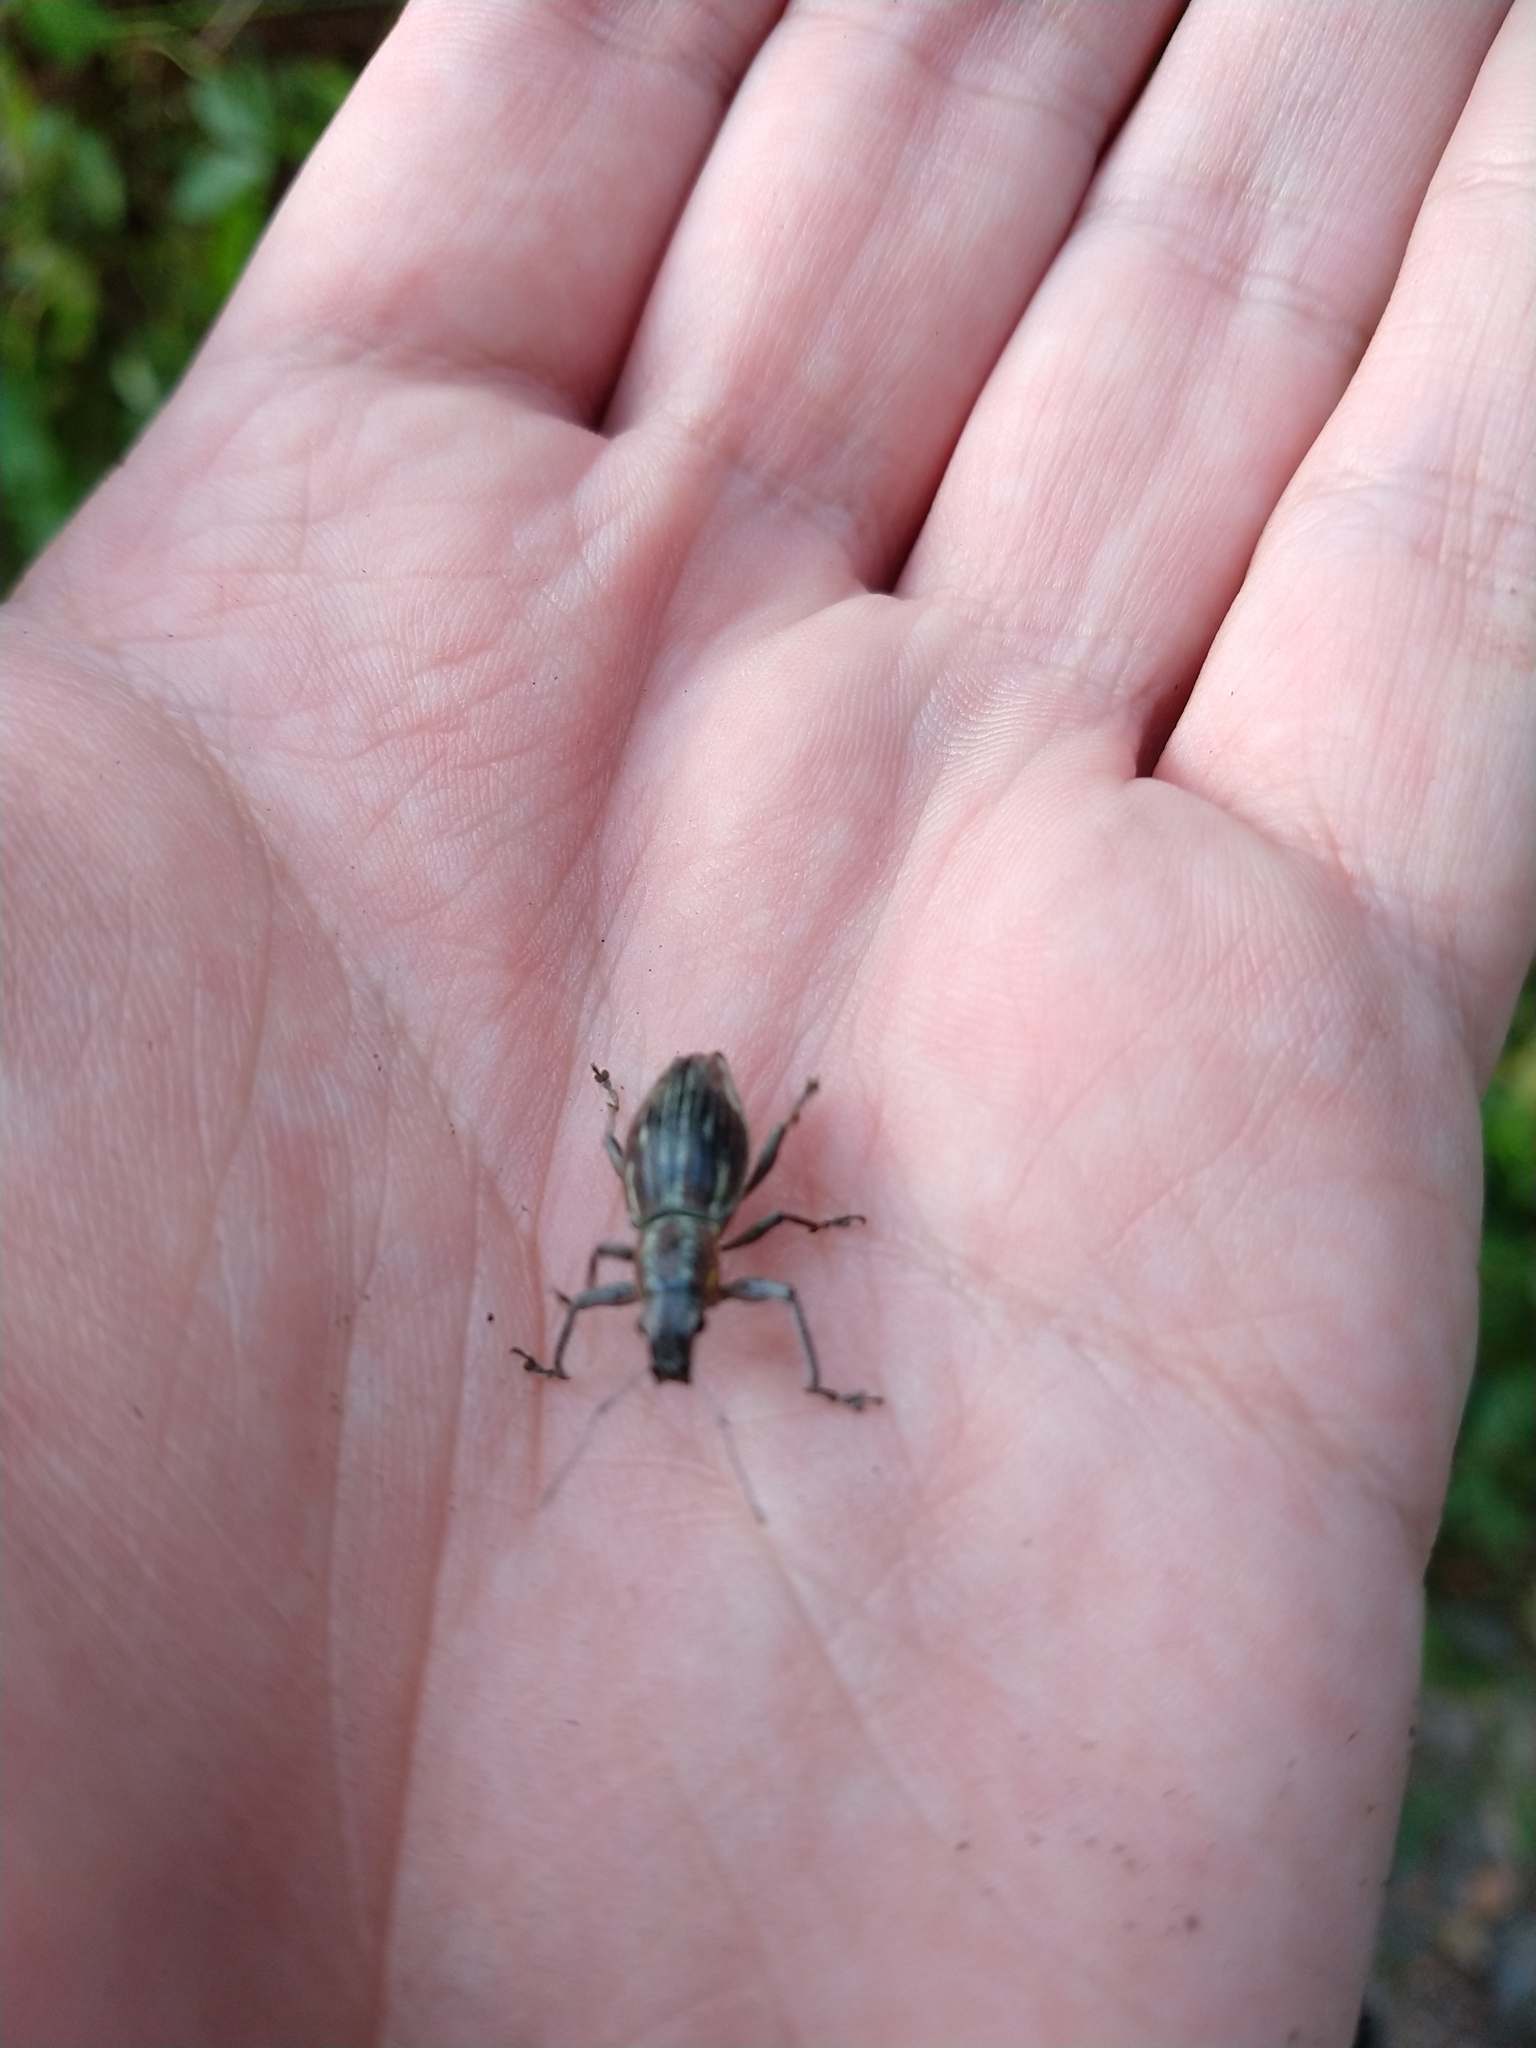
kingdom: Animalia
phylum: Arthropoda
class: Insecta
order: Coleoptera
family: Curculionidae
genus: Naupactus
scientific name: Naupactus xanthographus
